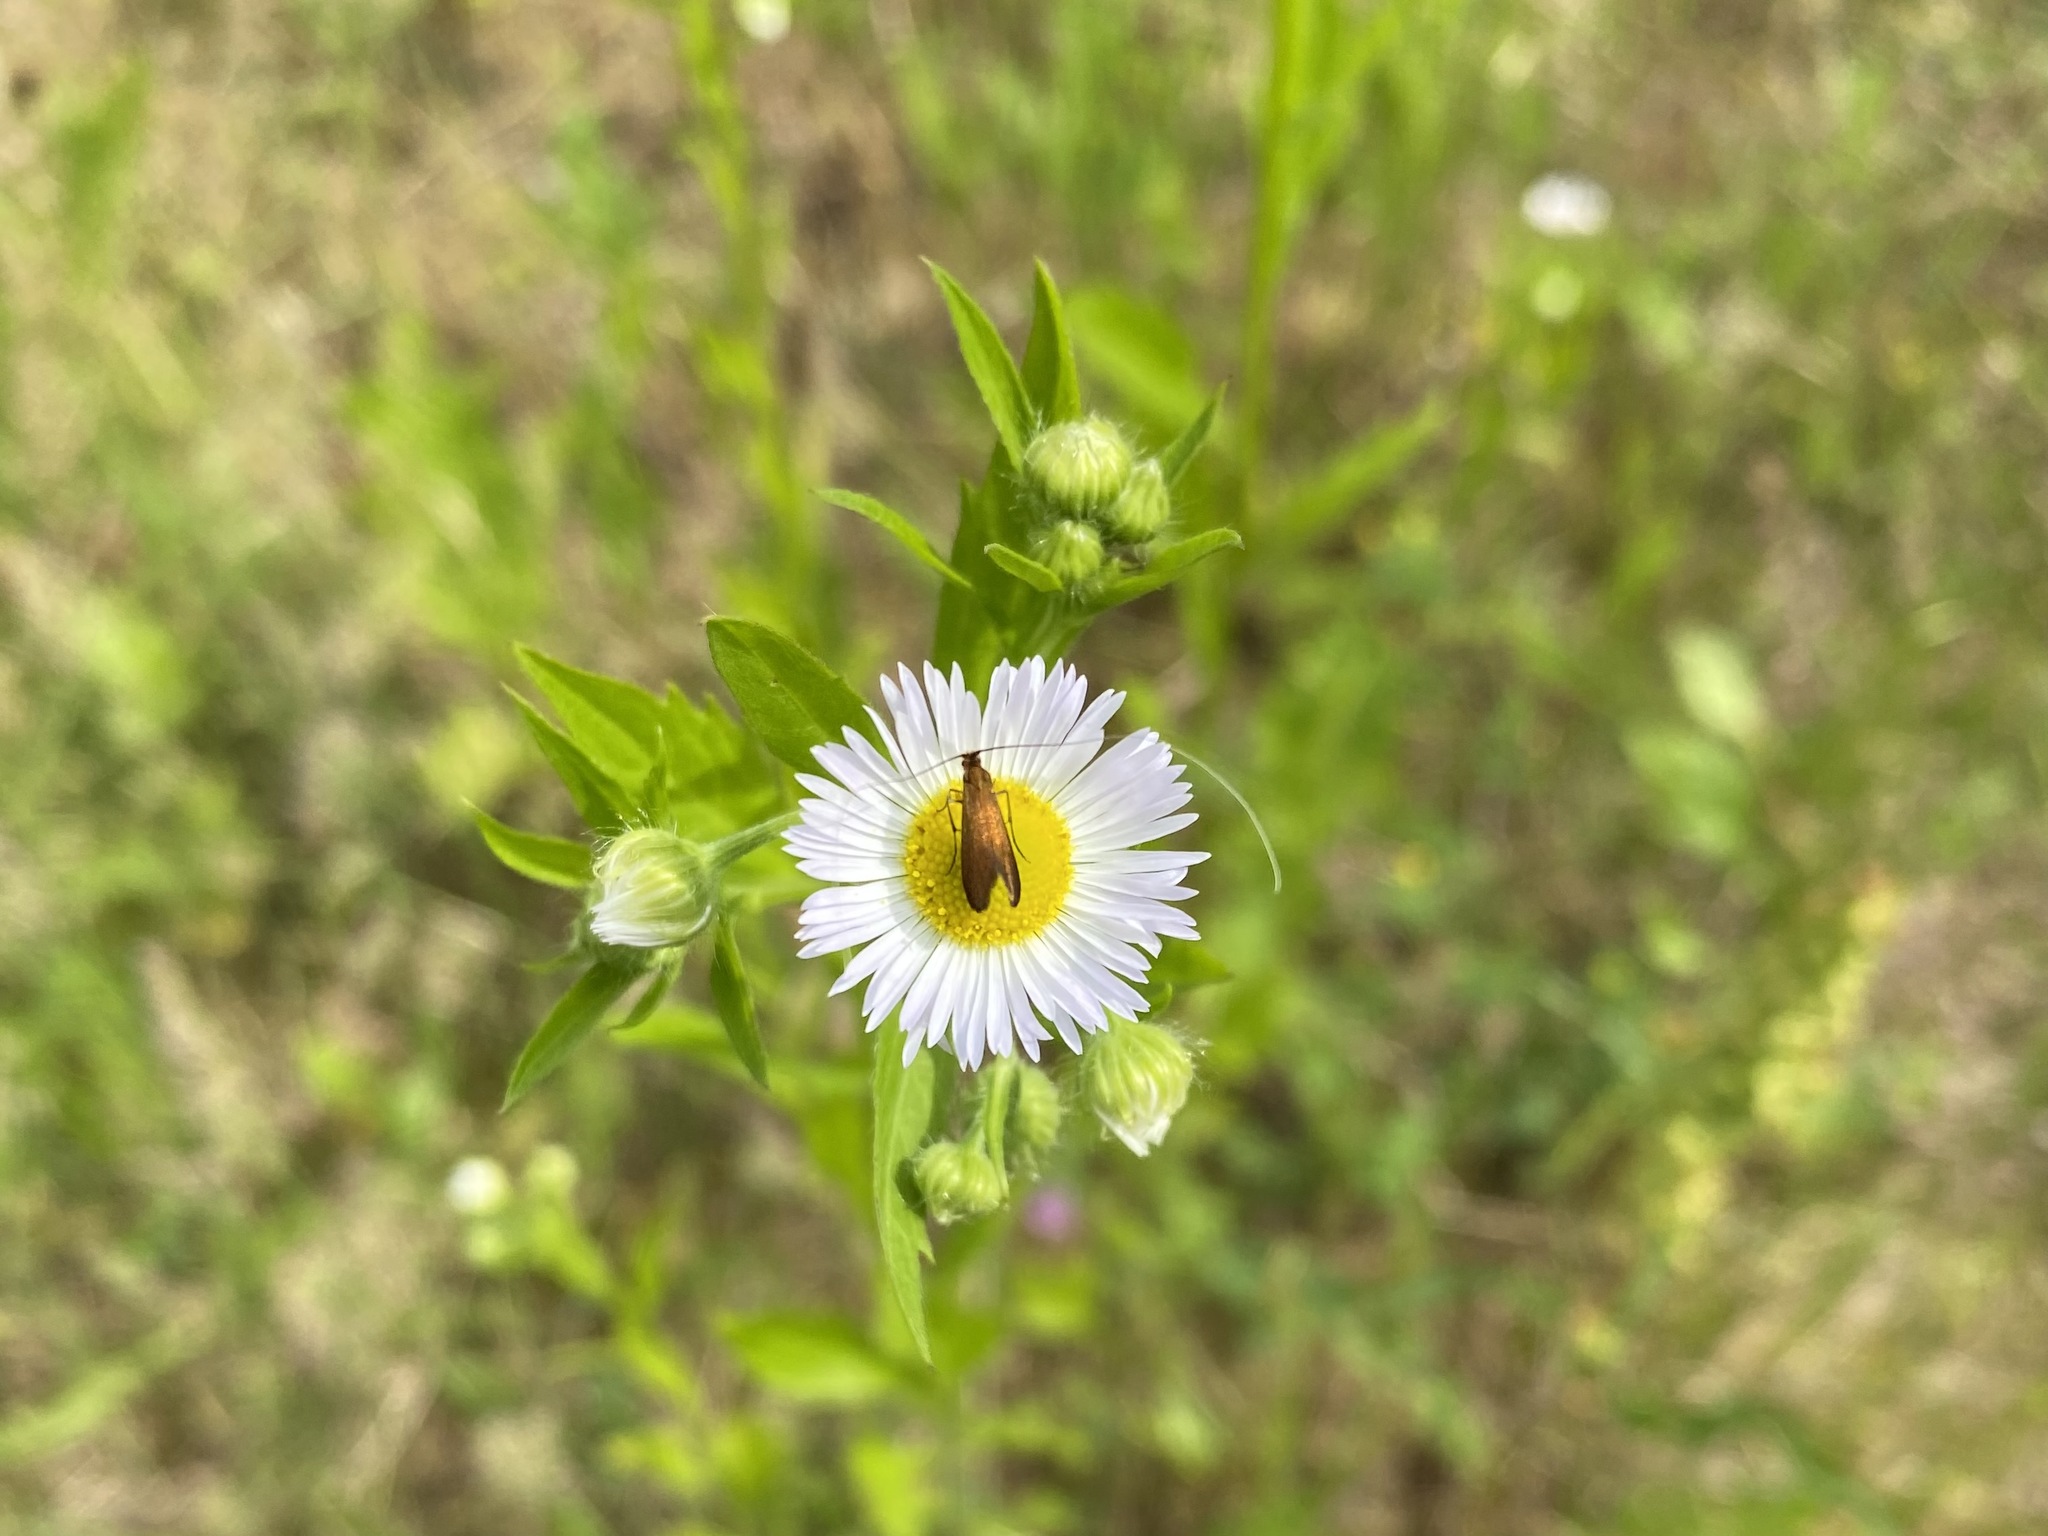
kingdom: Animalia
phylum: Arthropoda
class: Insecta
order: Lepidoptera
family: Adelidae
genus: Adela
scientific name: Adela violella
